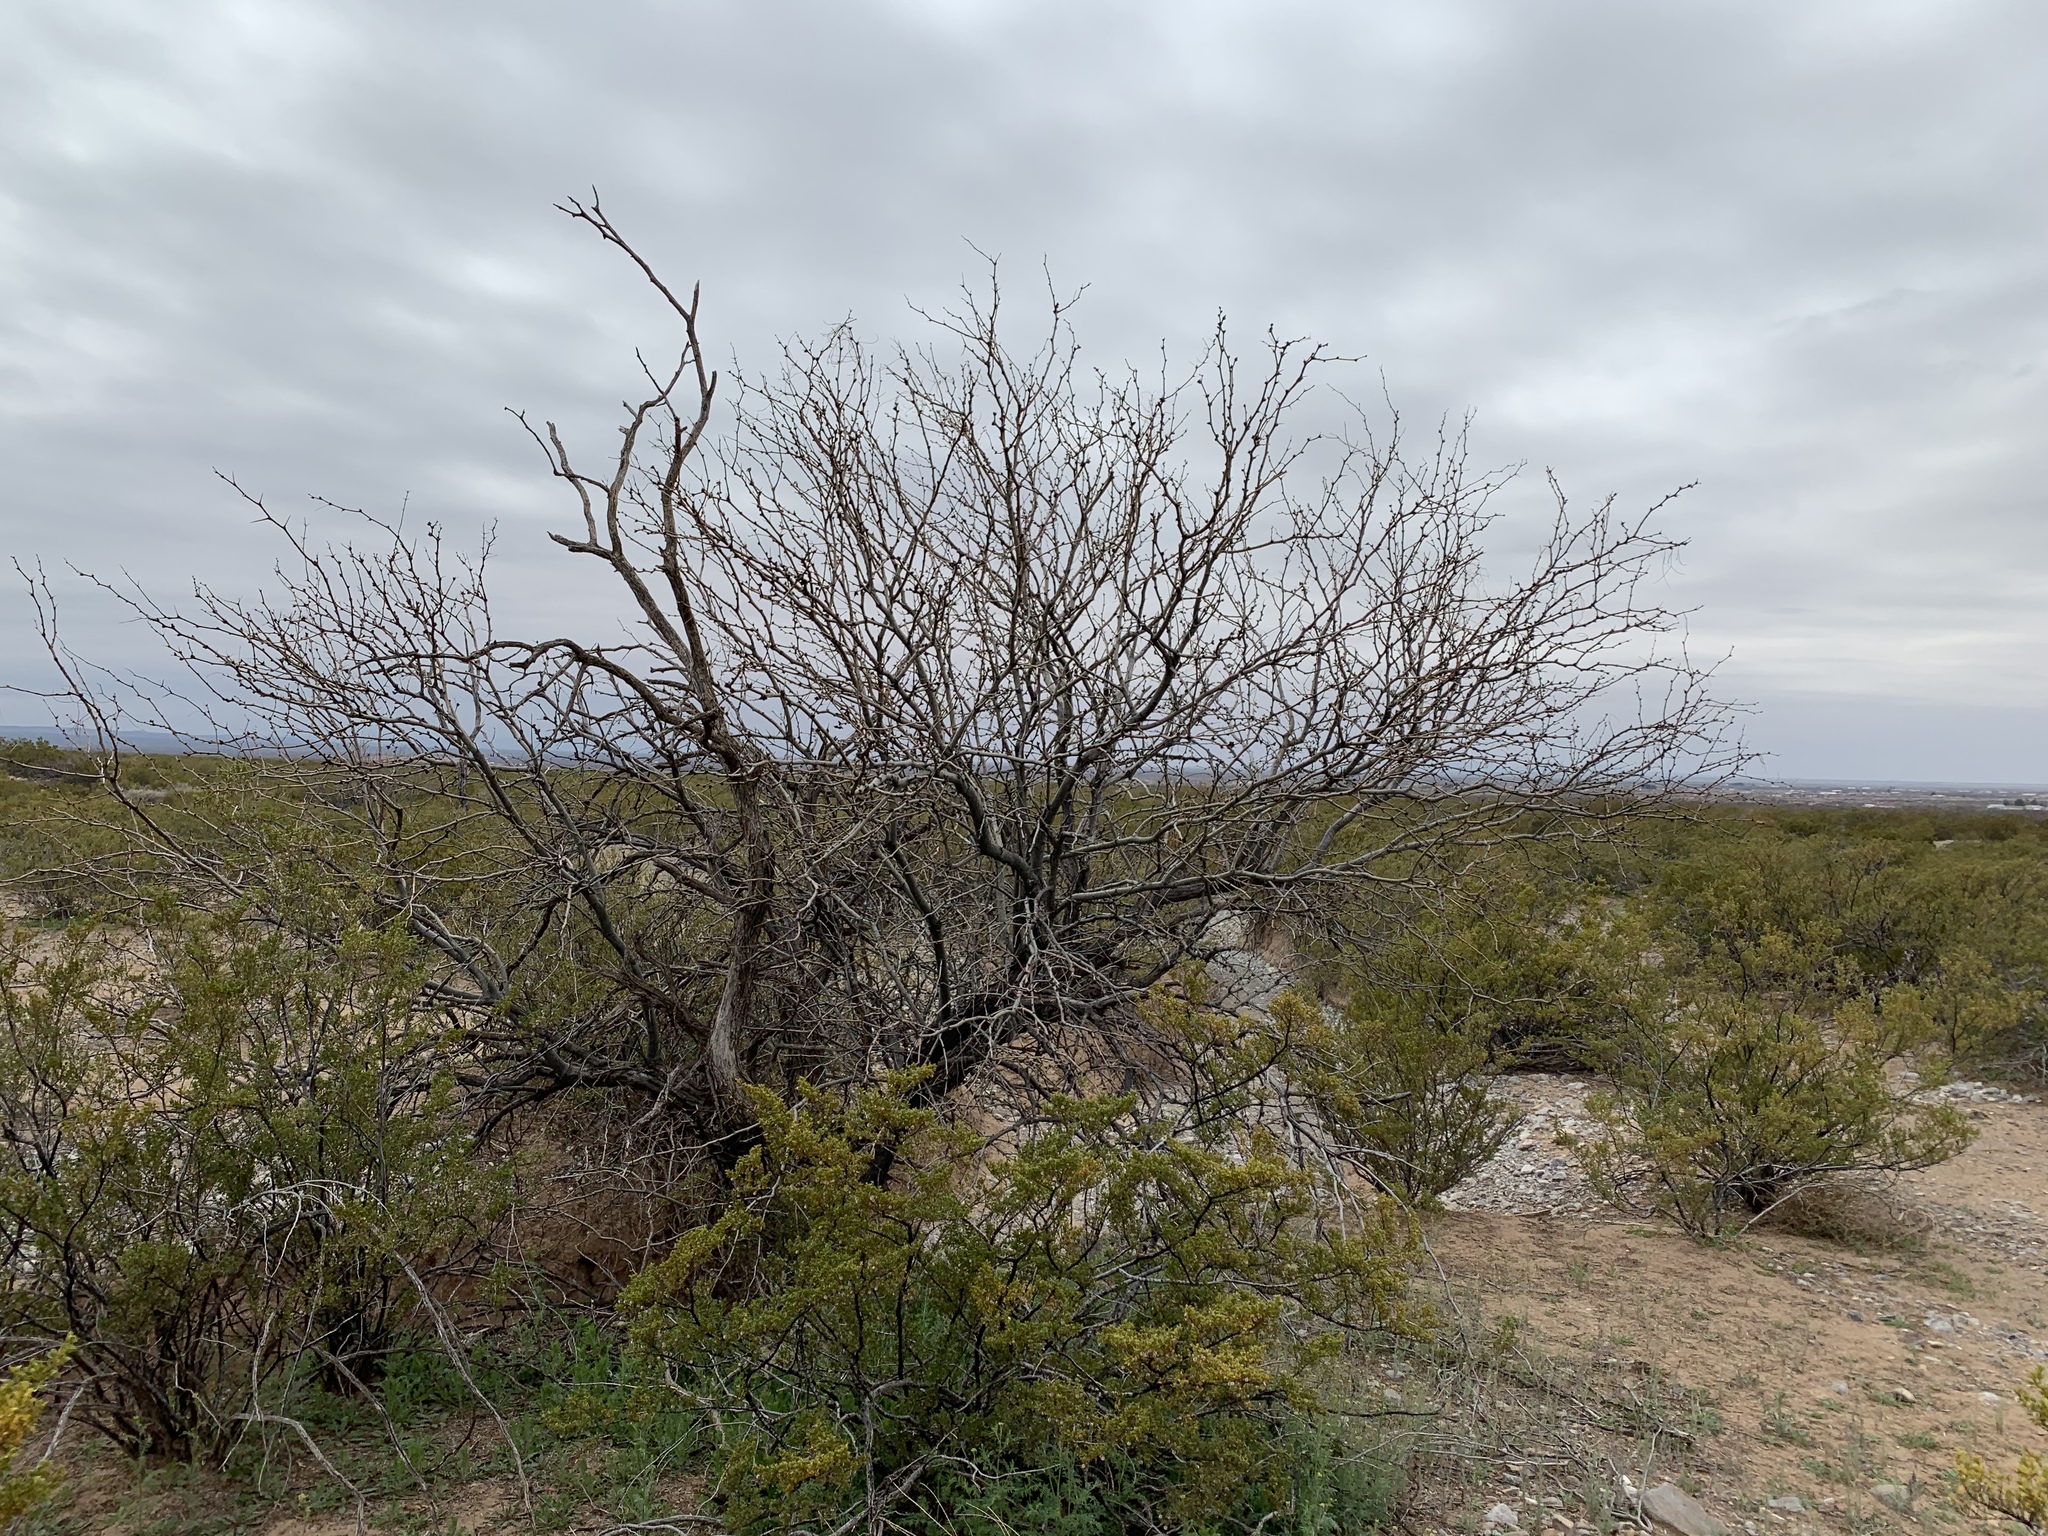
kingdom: Plantae
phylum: Tracheophyta
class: Magnoliopsida
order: Fabales
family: Fabaceae
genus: Prosopis
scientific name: Prosopis glandulosa
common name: Honey mesquite
